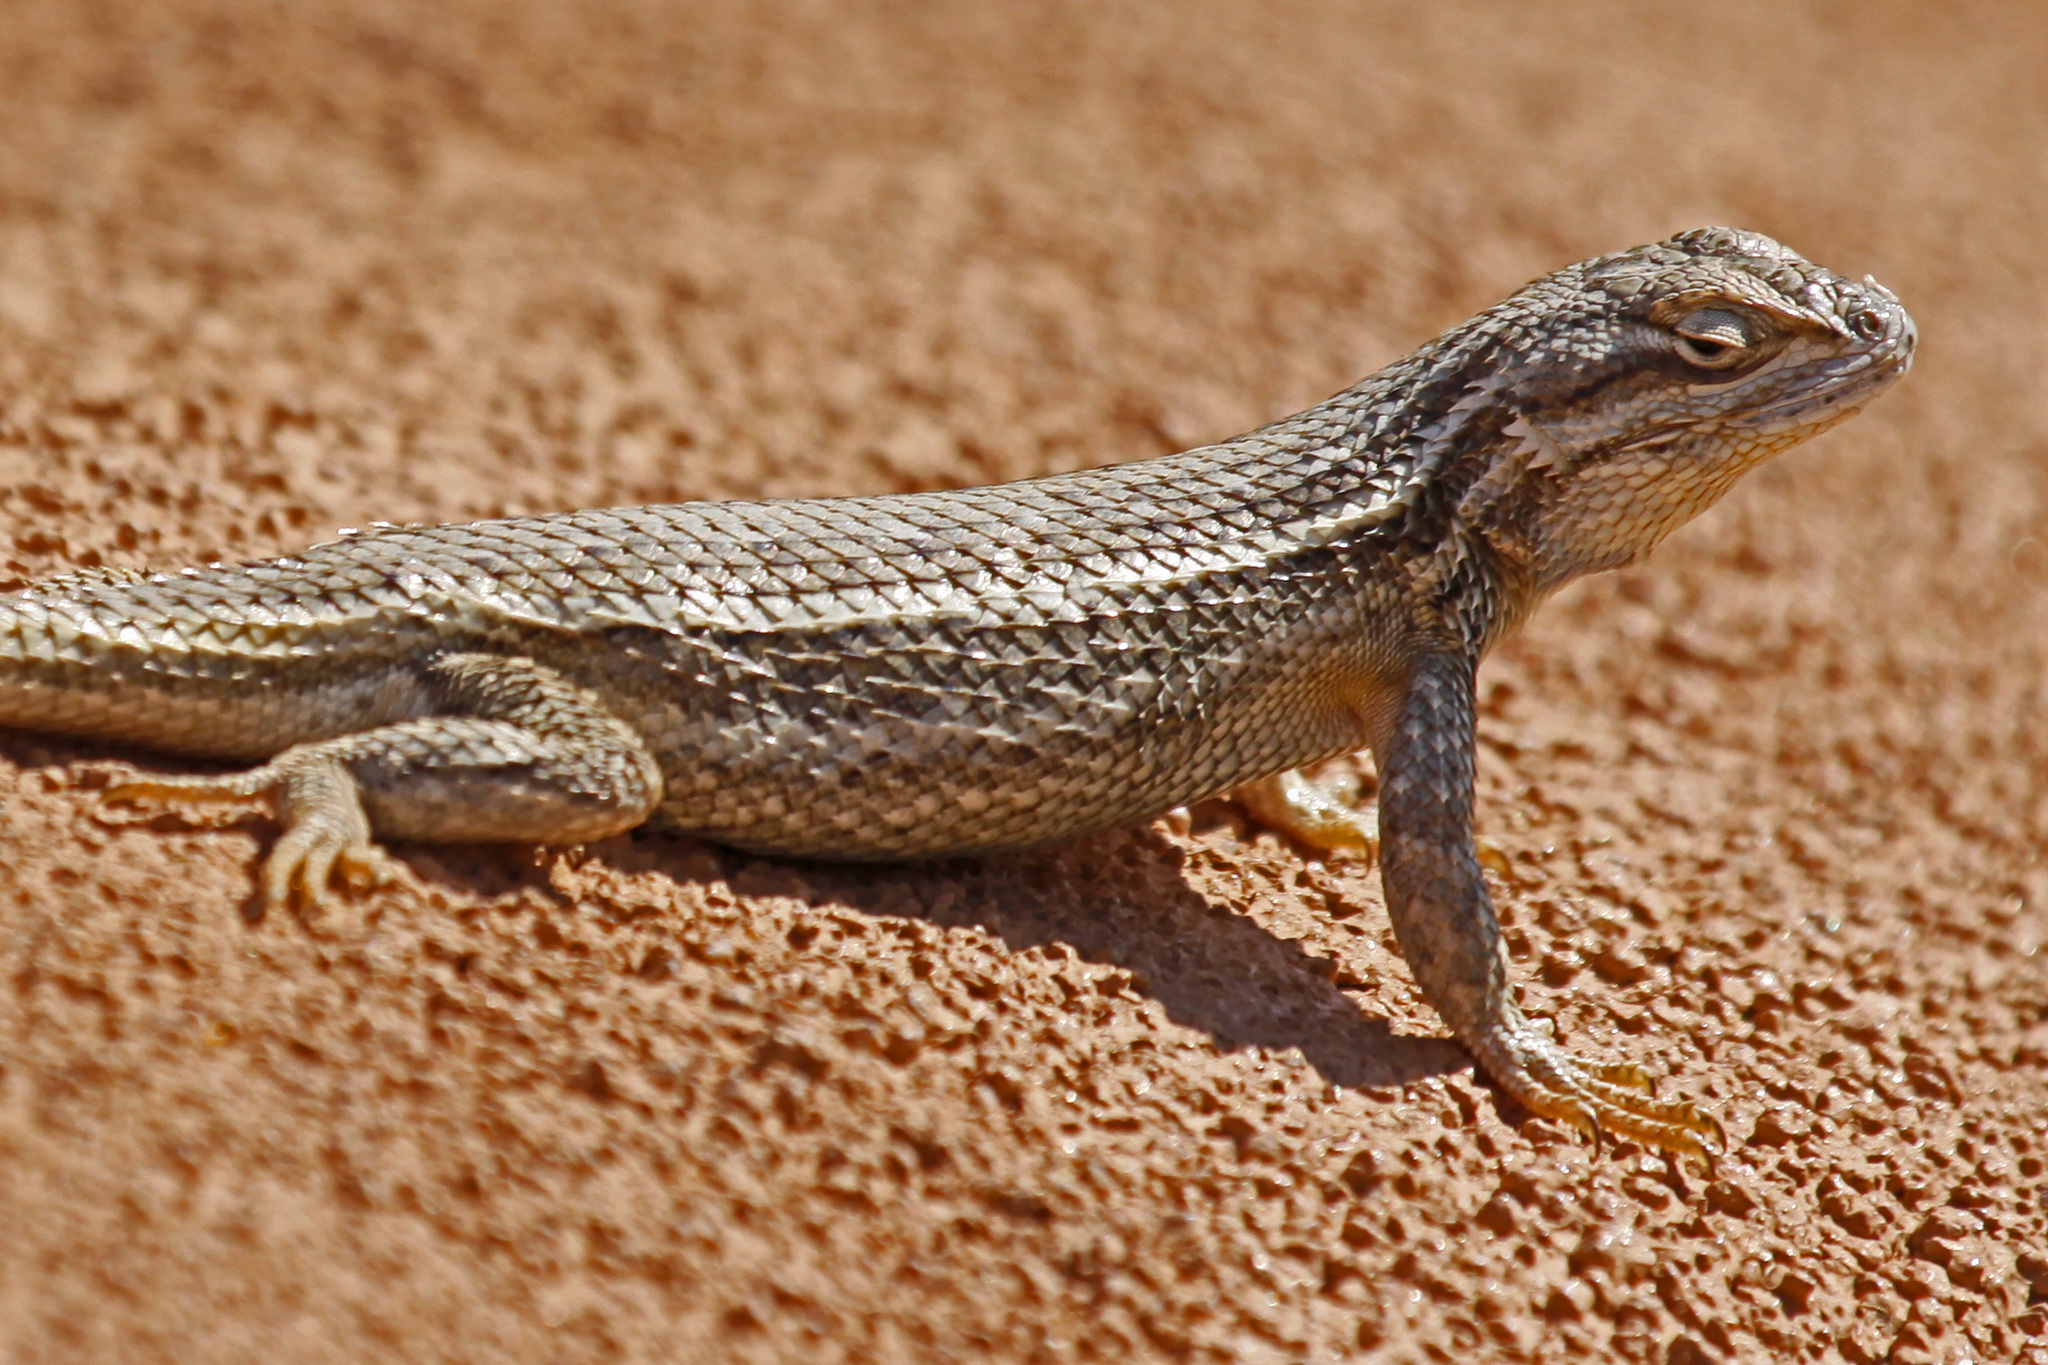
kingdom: Animalia
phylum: Chordata
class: Squamata
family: Phrynosomatidae
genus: Sceloporus
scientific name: Sceloporus cowlesi
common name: White sands prairie lizard
